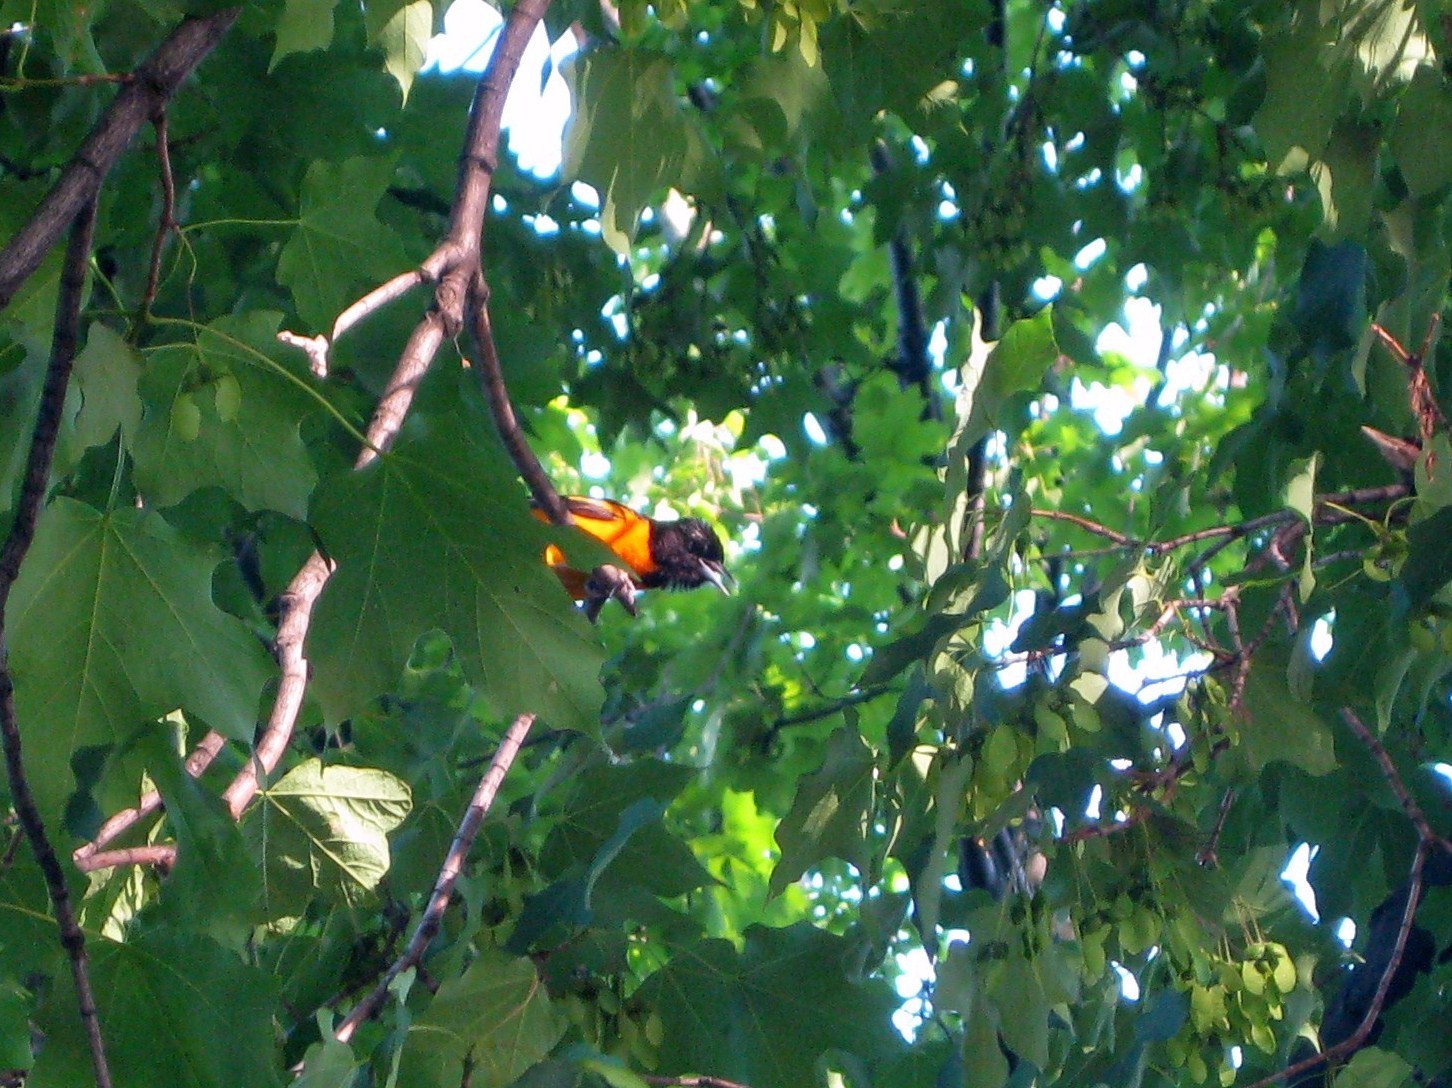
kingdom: Animalia
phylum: Chordata
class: Aves
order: Passeriformes
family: Icteridae
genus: Icterus
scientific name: Icterus galbula
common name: Baltimore oriole
